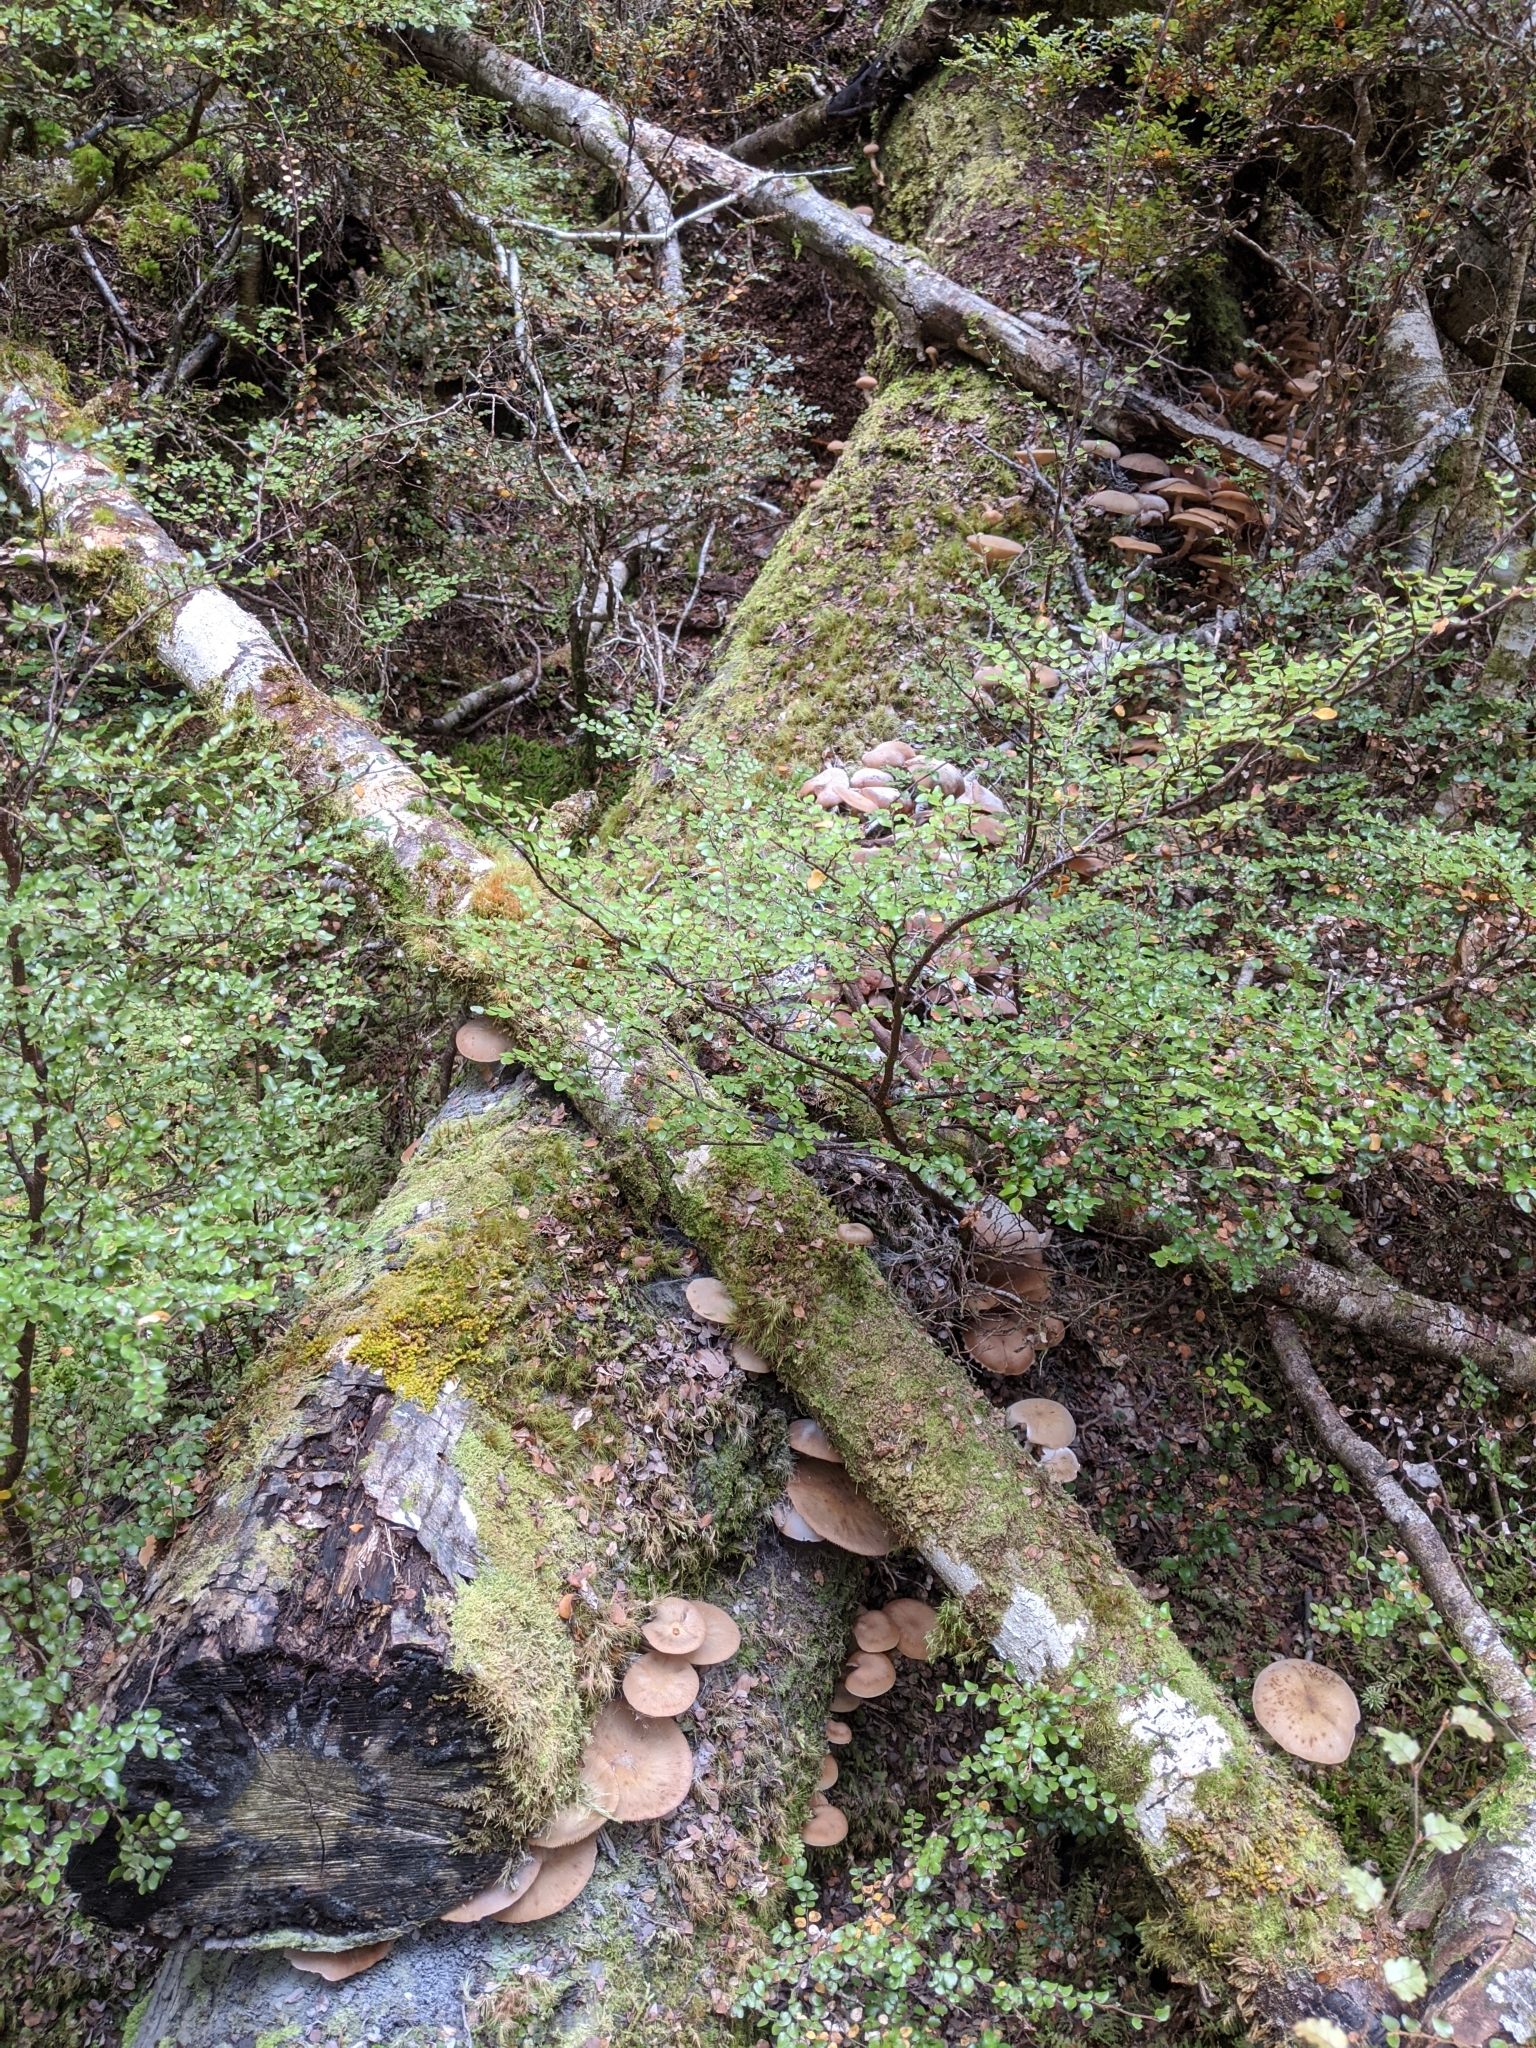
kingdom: Fungi
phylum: Basidiomycota
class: Agaricomycetes
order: Agaricales
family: Physalacriaceae
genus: Armillaria
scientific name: Armillaria novae-zelandiae
